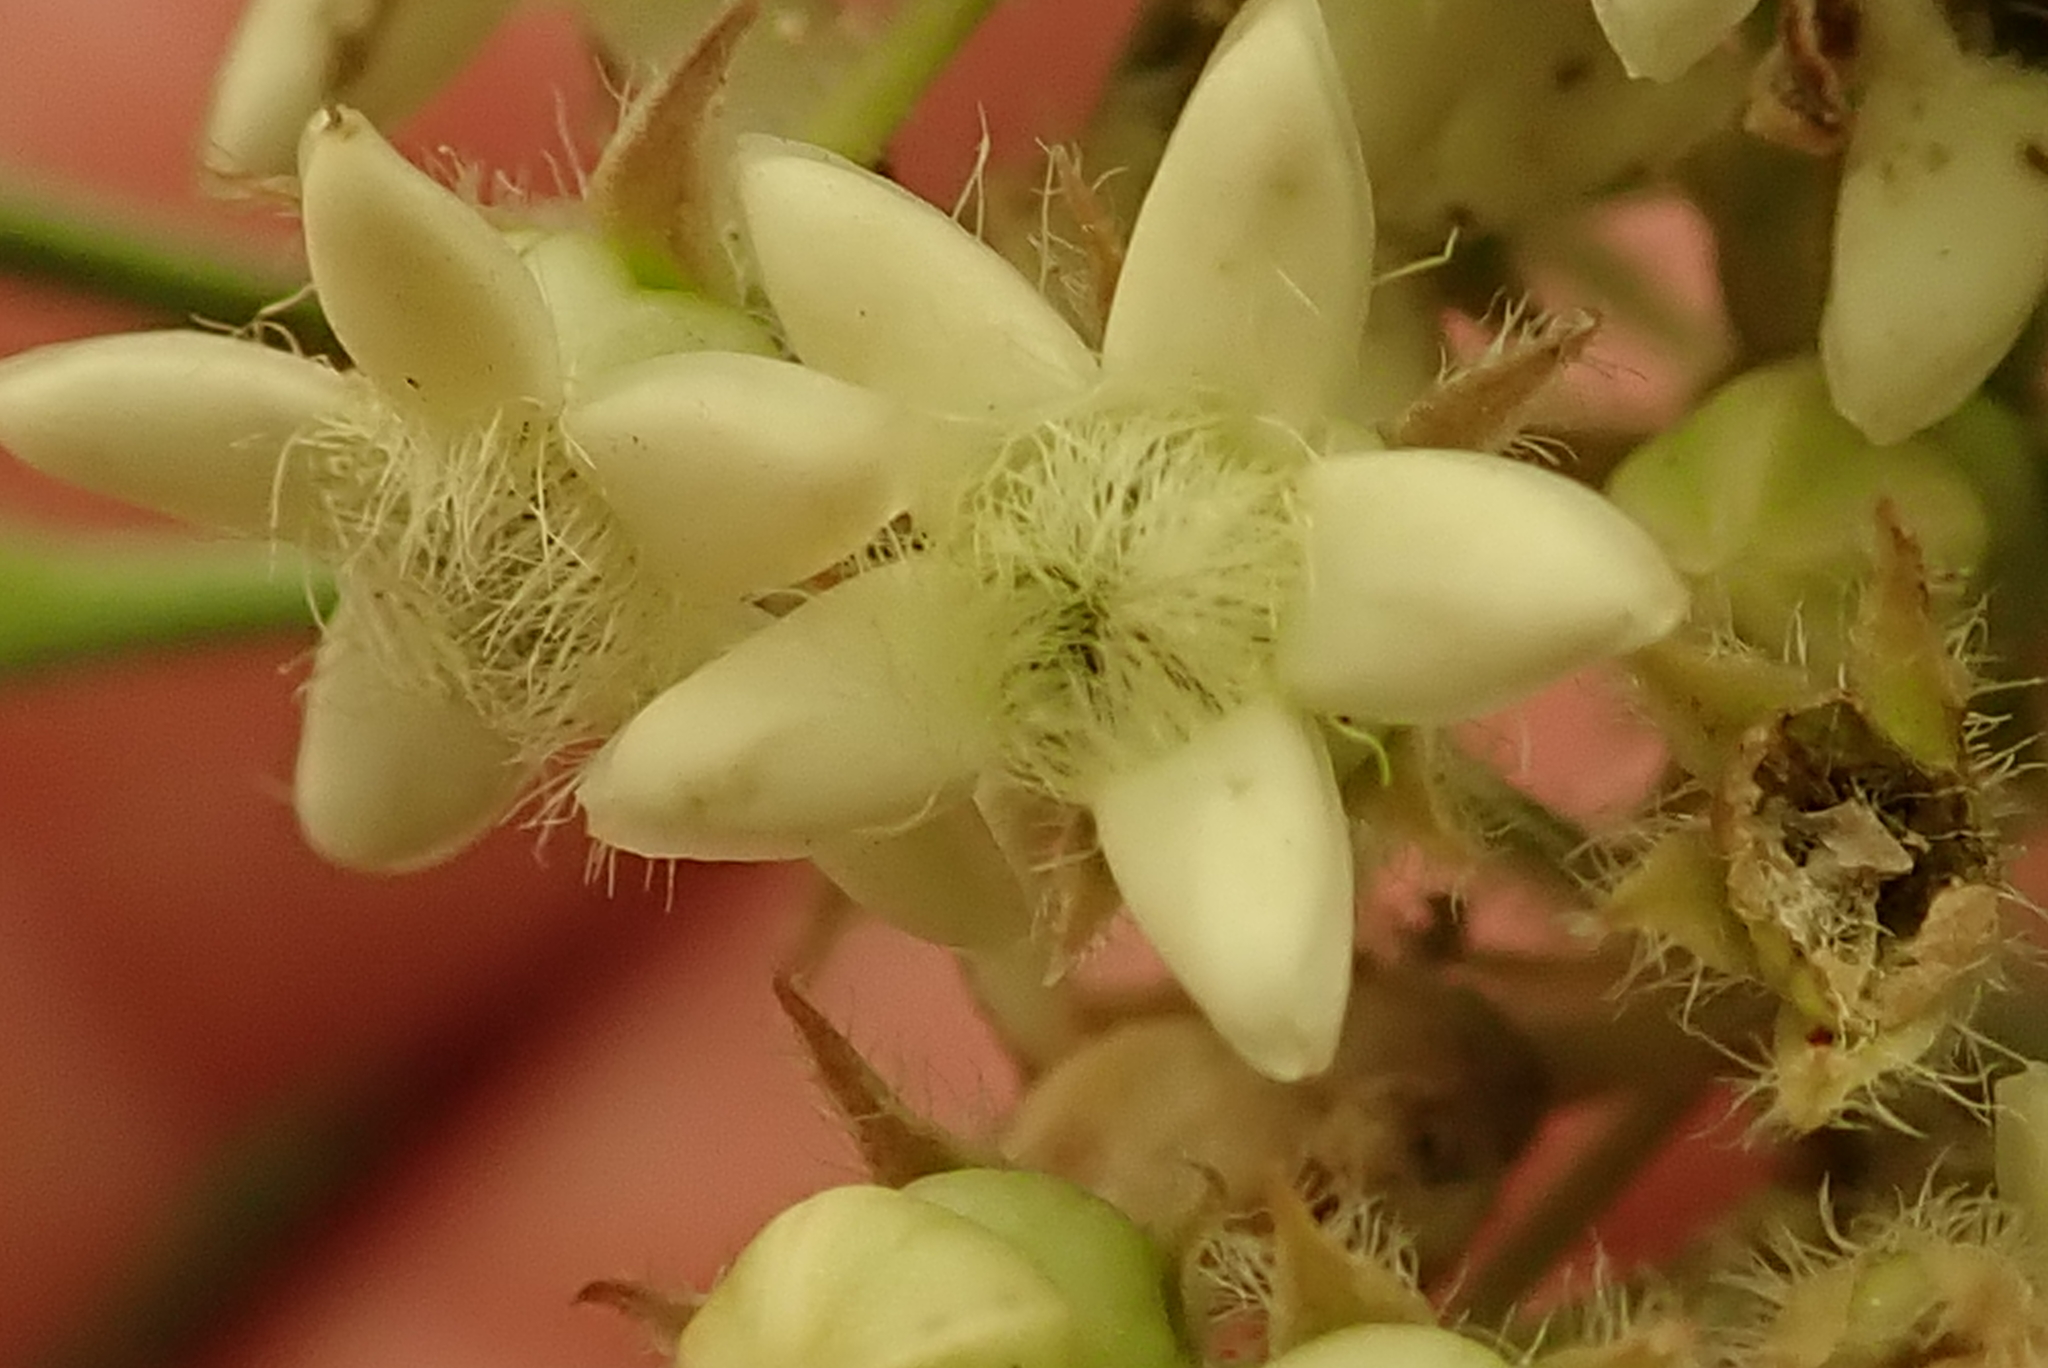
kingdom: Plantae
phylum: Tracheophyta
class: Magnoliopsida
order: Gentianales
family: Apocynaceae
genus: Sisyranthus
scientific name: Sisyranthus trichostomus
